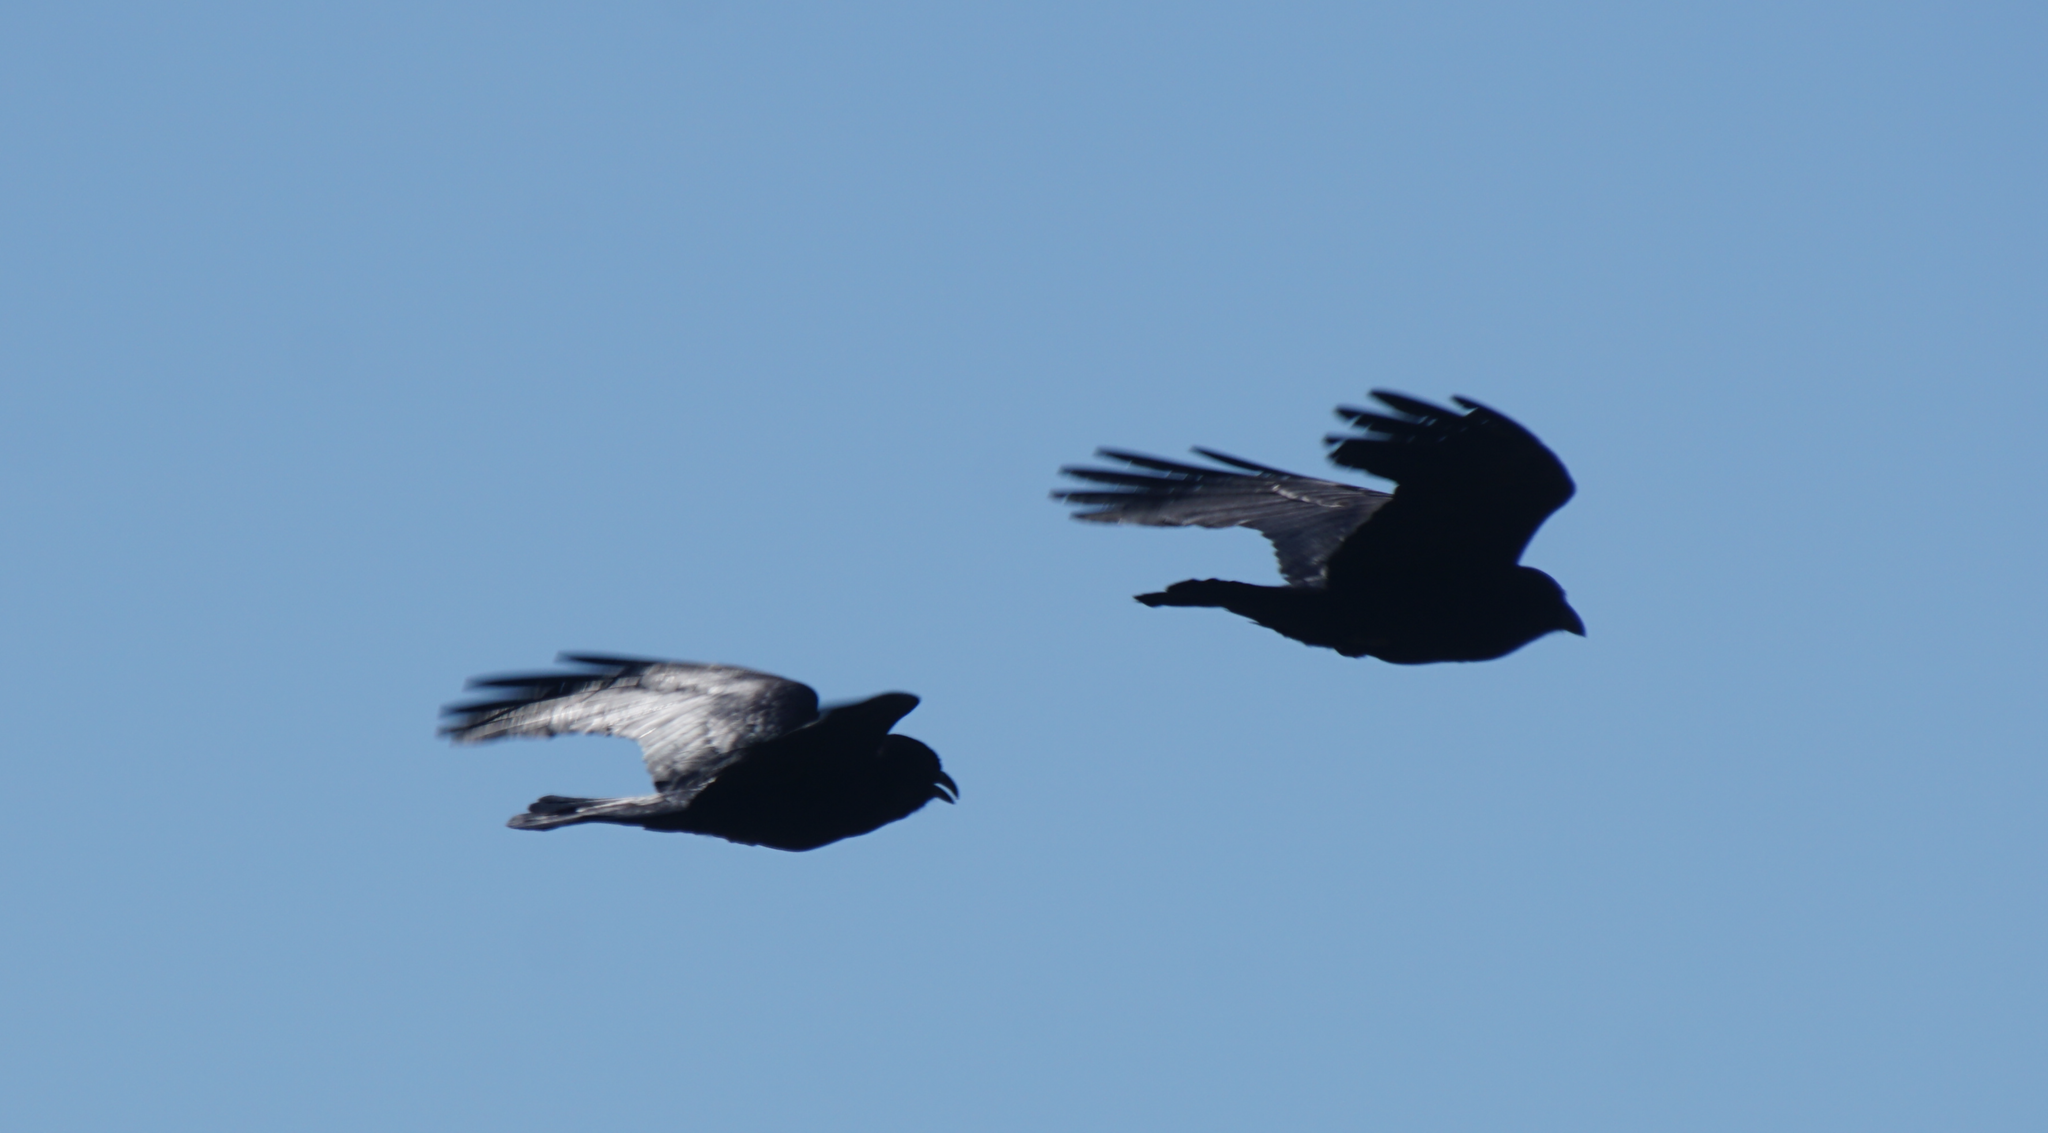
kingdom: Animalia
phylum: Chordata
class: Aves
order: Passeriformes
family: Corvidae
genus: Corvus
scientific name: Corvus corax
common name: Common raven
